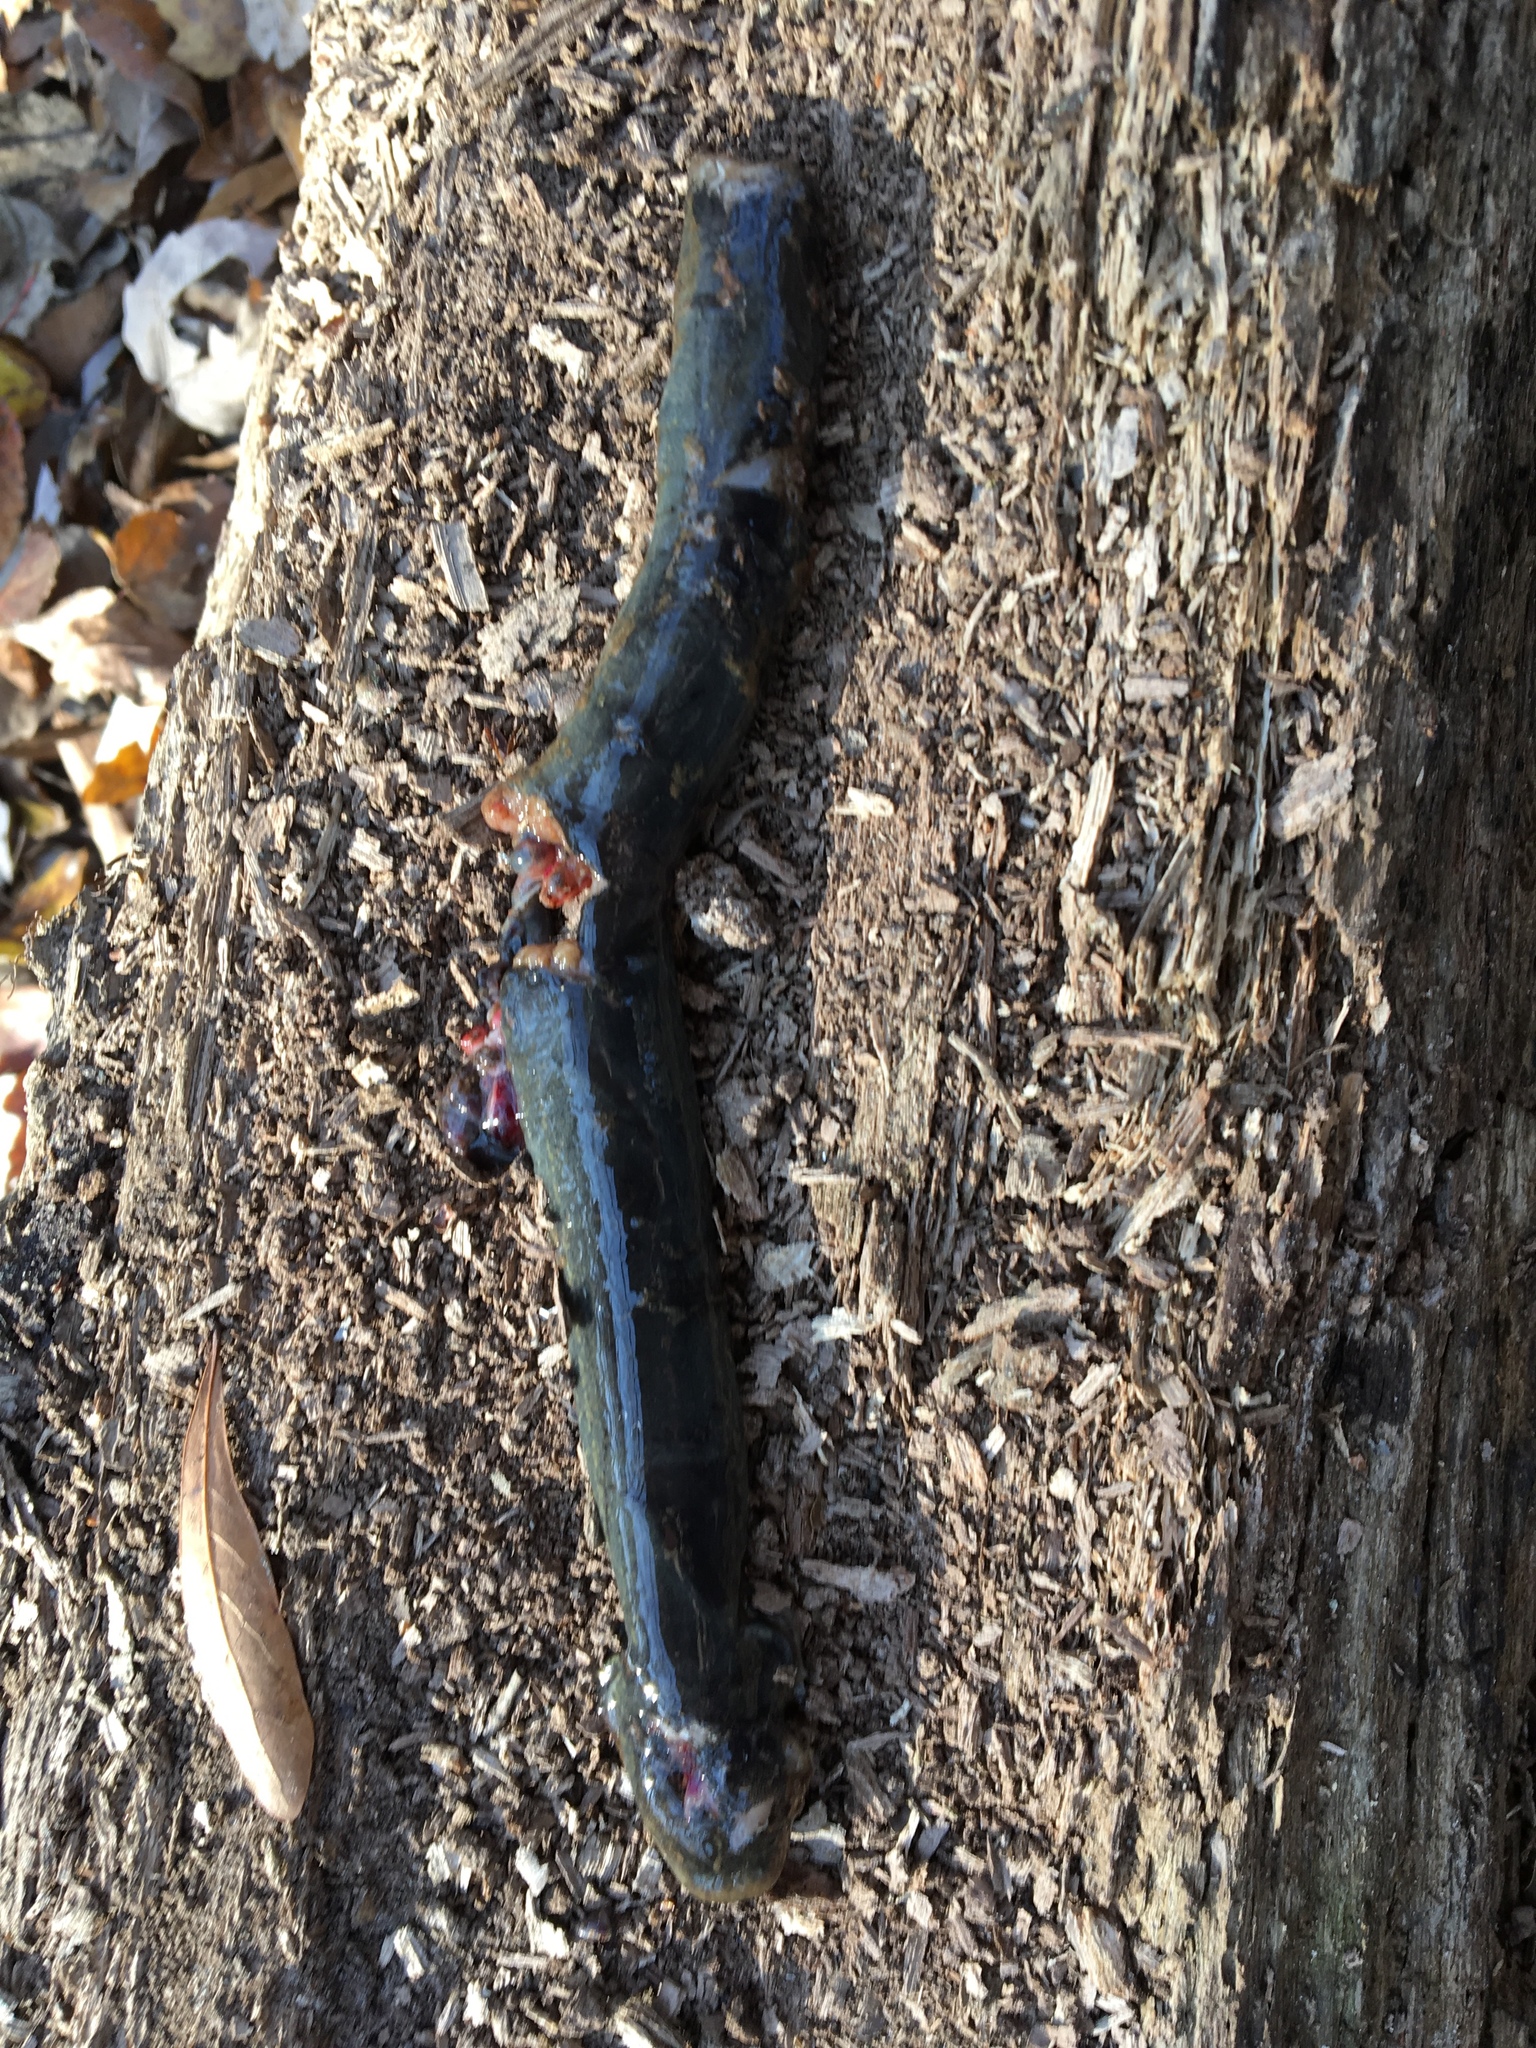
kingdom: Animalia
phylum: Chordata
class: Amphibia
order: Caudata
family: Sirenidae
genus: Siren
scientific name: Siren intermedia
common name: Lesser siren
